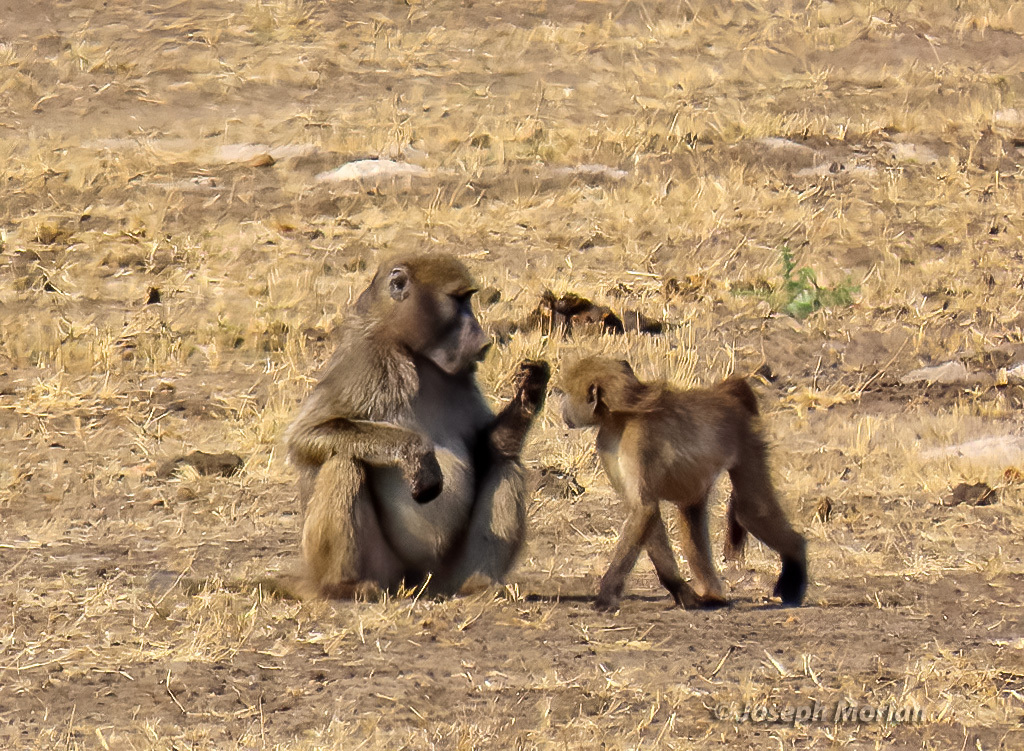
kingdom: Animalia
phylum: Chordata
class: Mammalia
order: Primates
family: Cercopithecidae
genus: Papio
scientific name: Papio ursinus
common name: Chacma baboon
